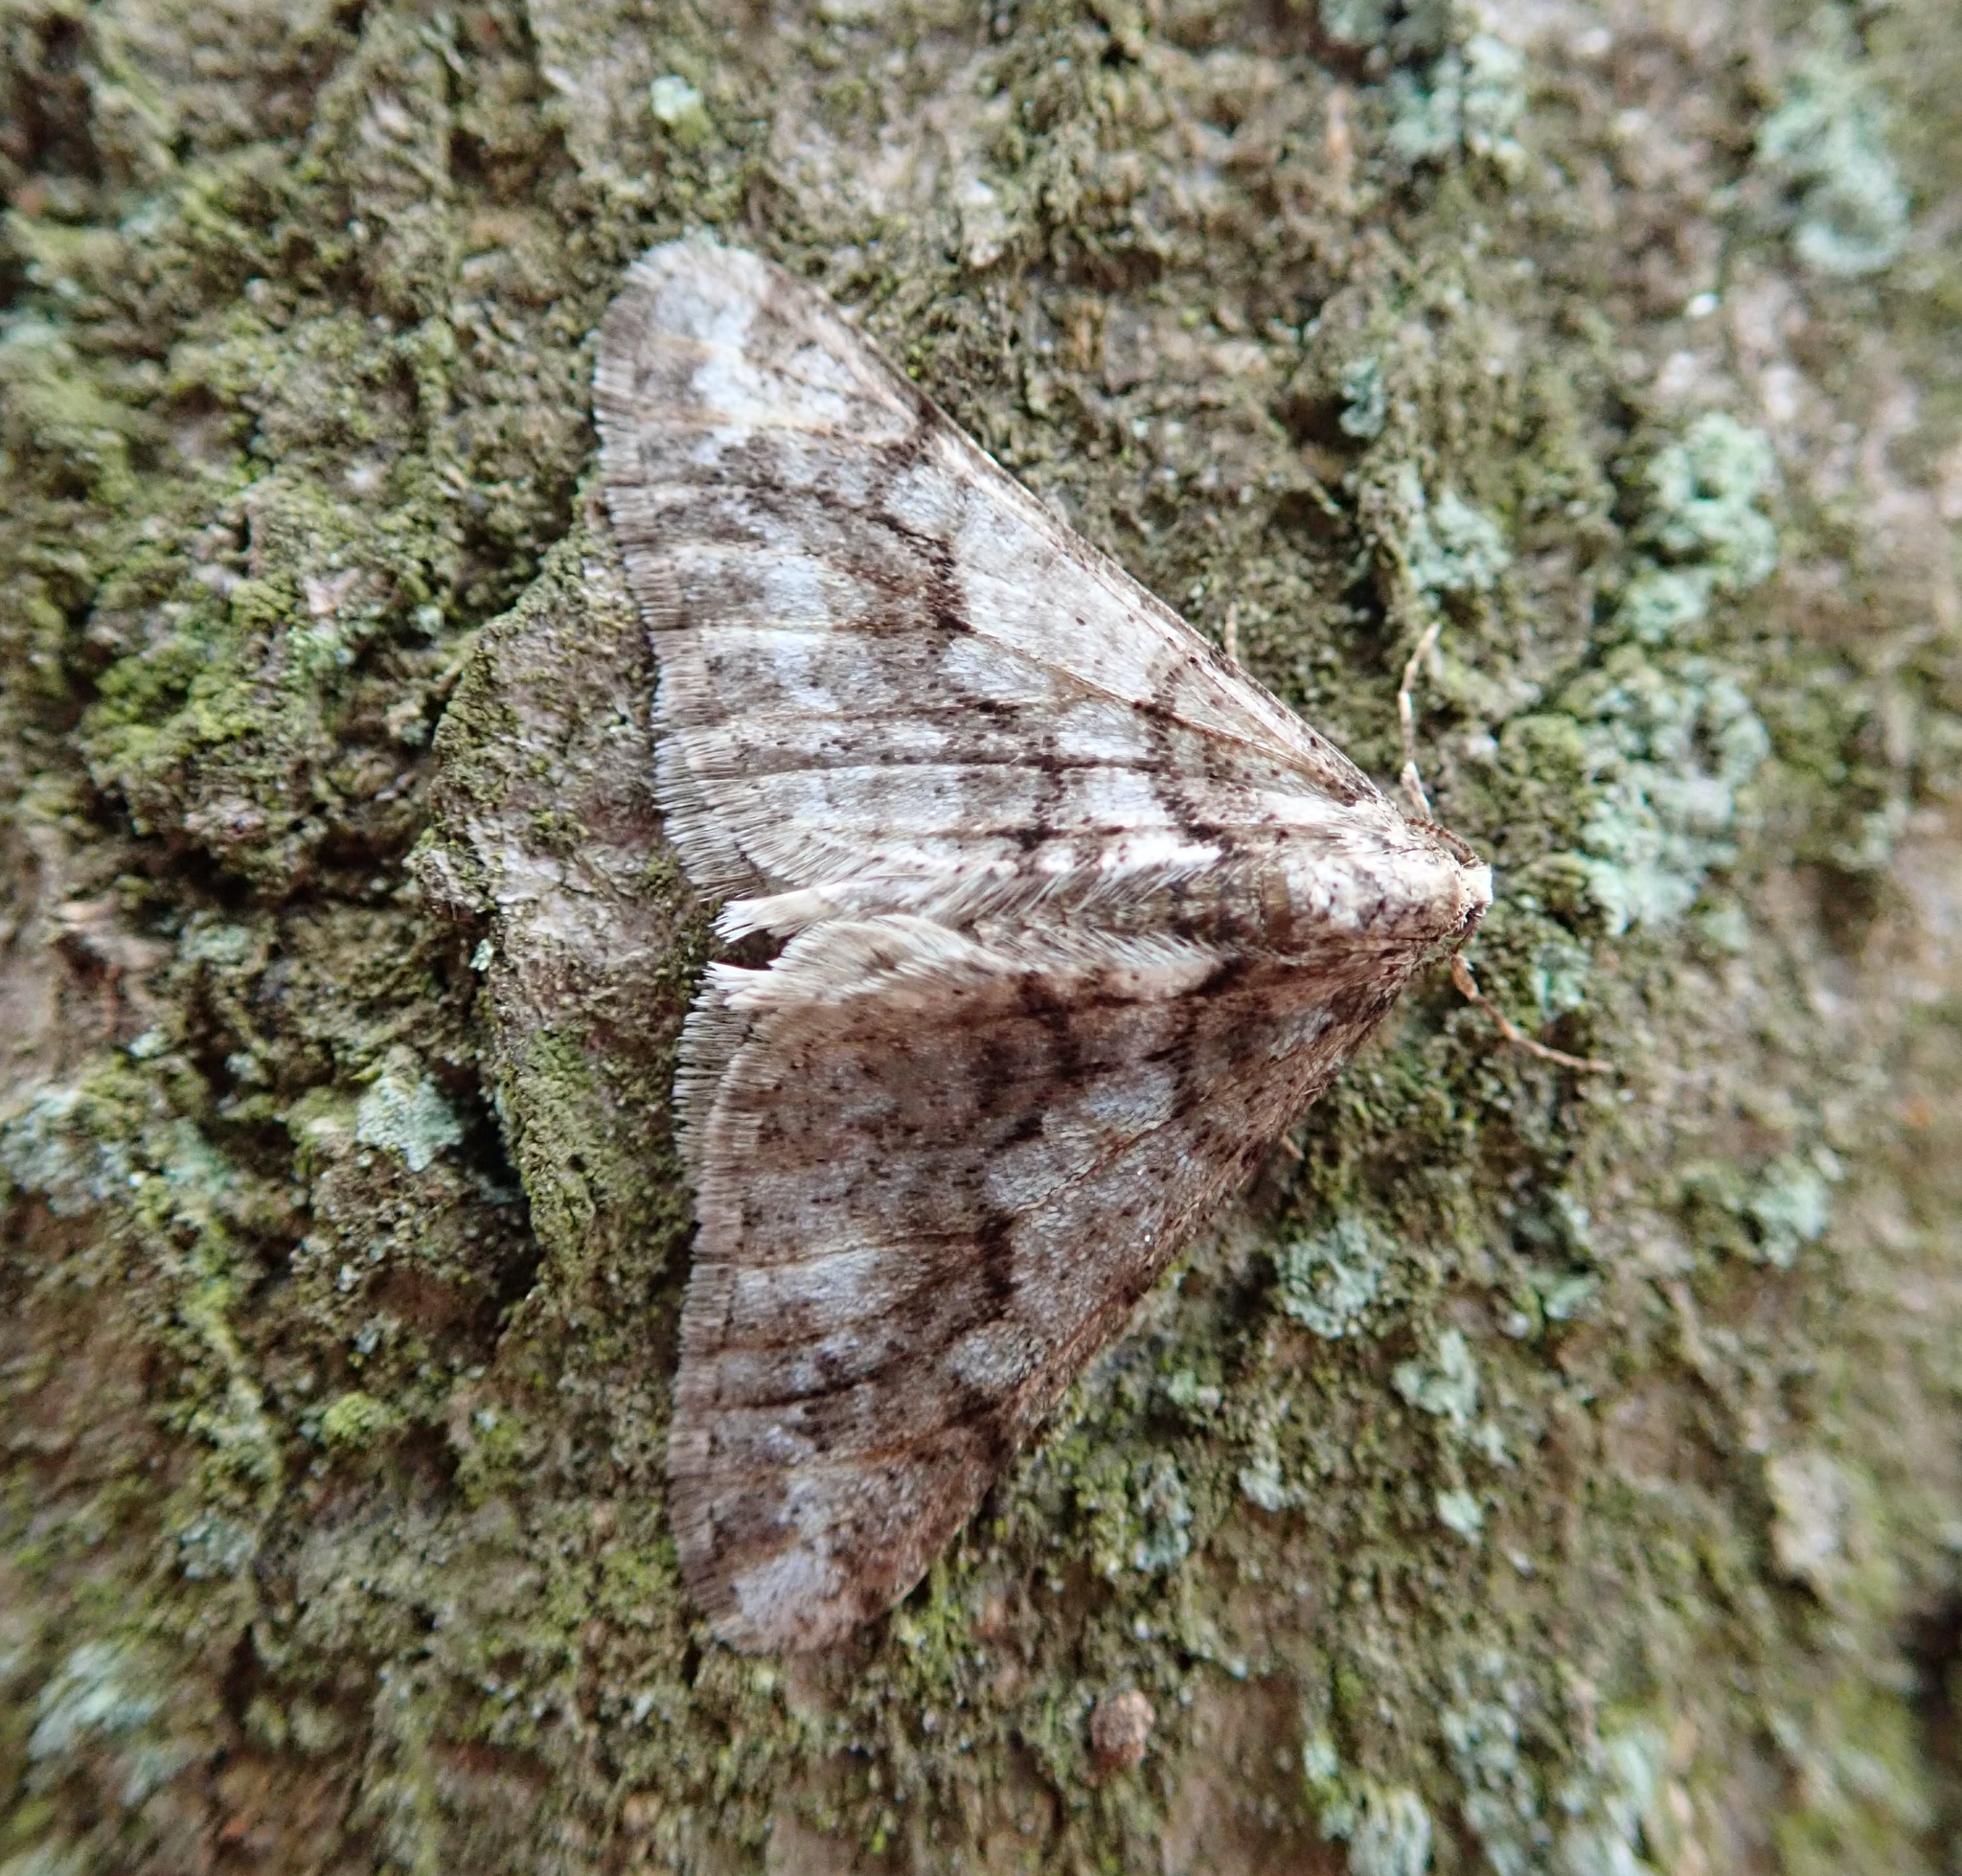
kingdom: Animalia
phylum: Arthropoda
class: Insecta
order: Lepidoptera
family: Geometridae
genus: Agriopis
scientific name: Agriopis leucophaearia
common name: Spring usher
